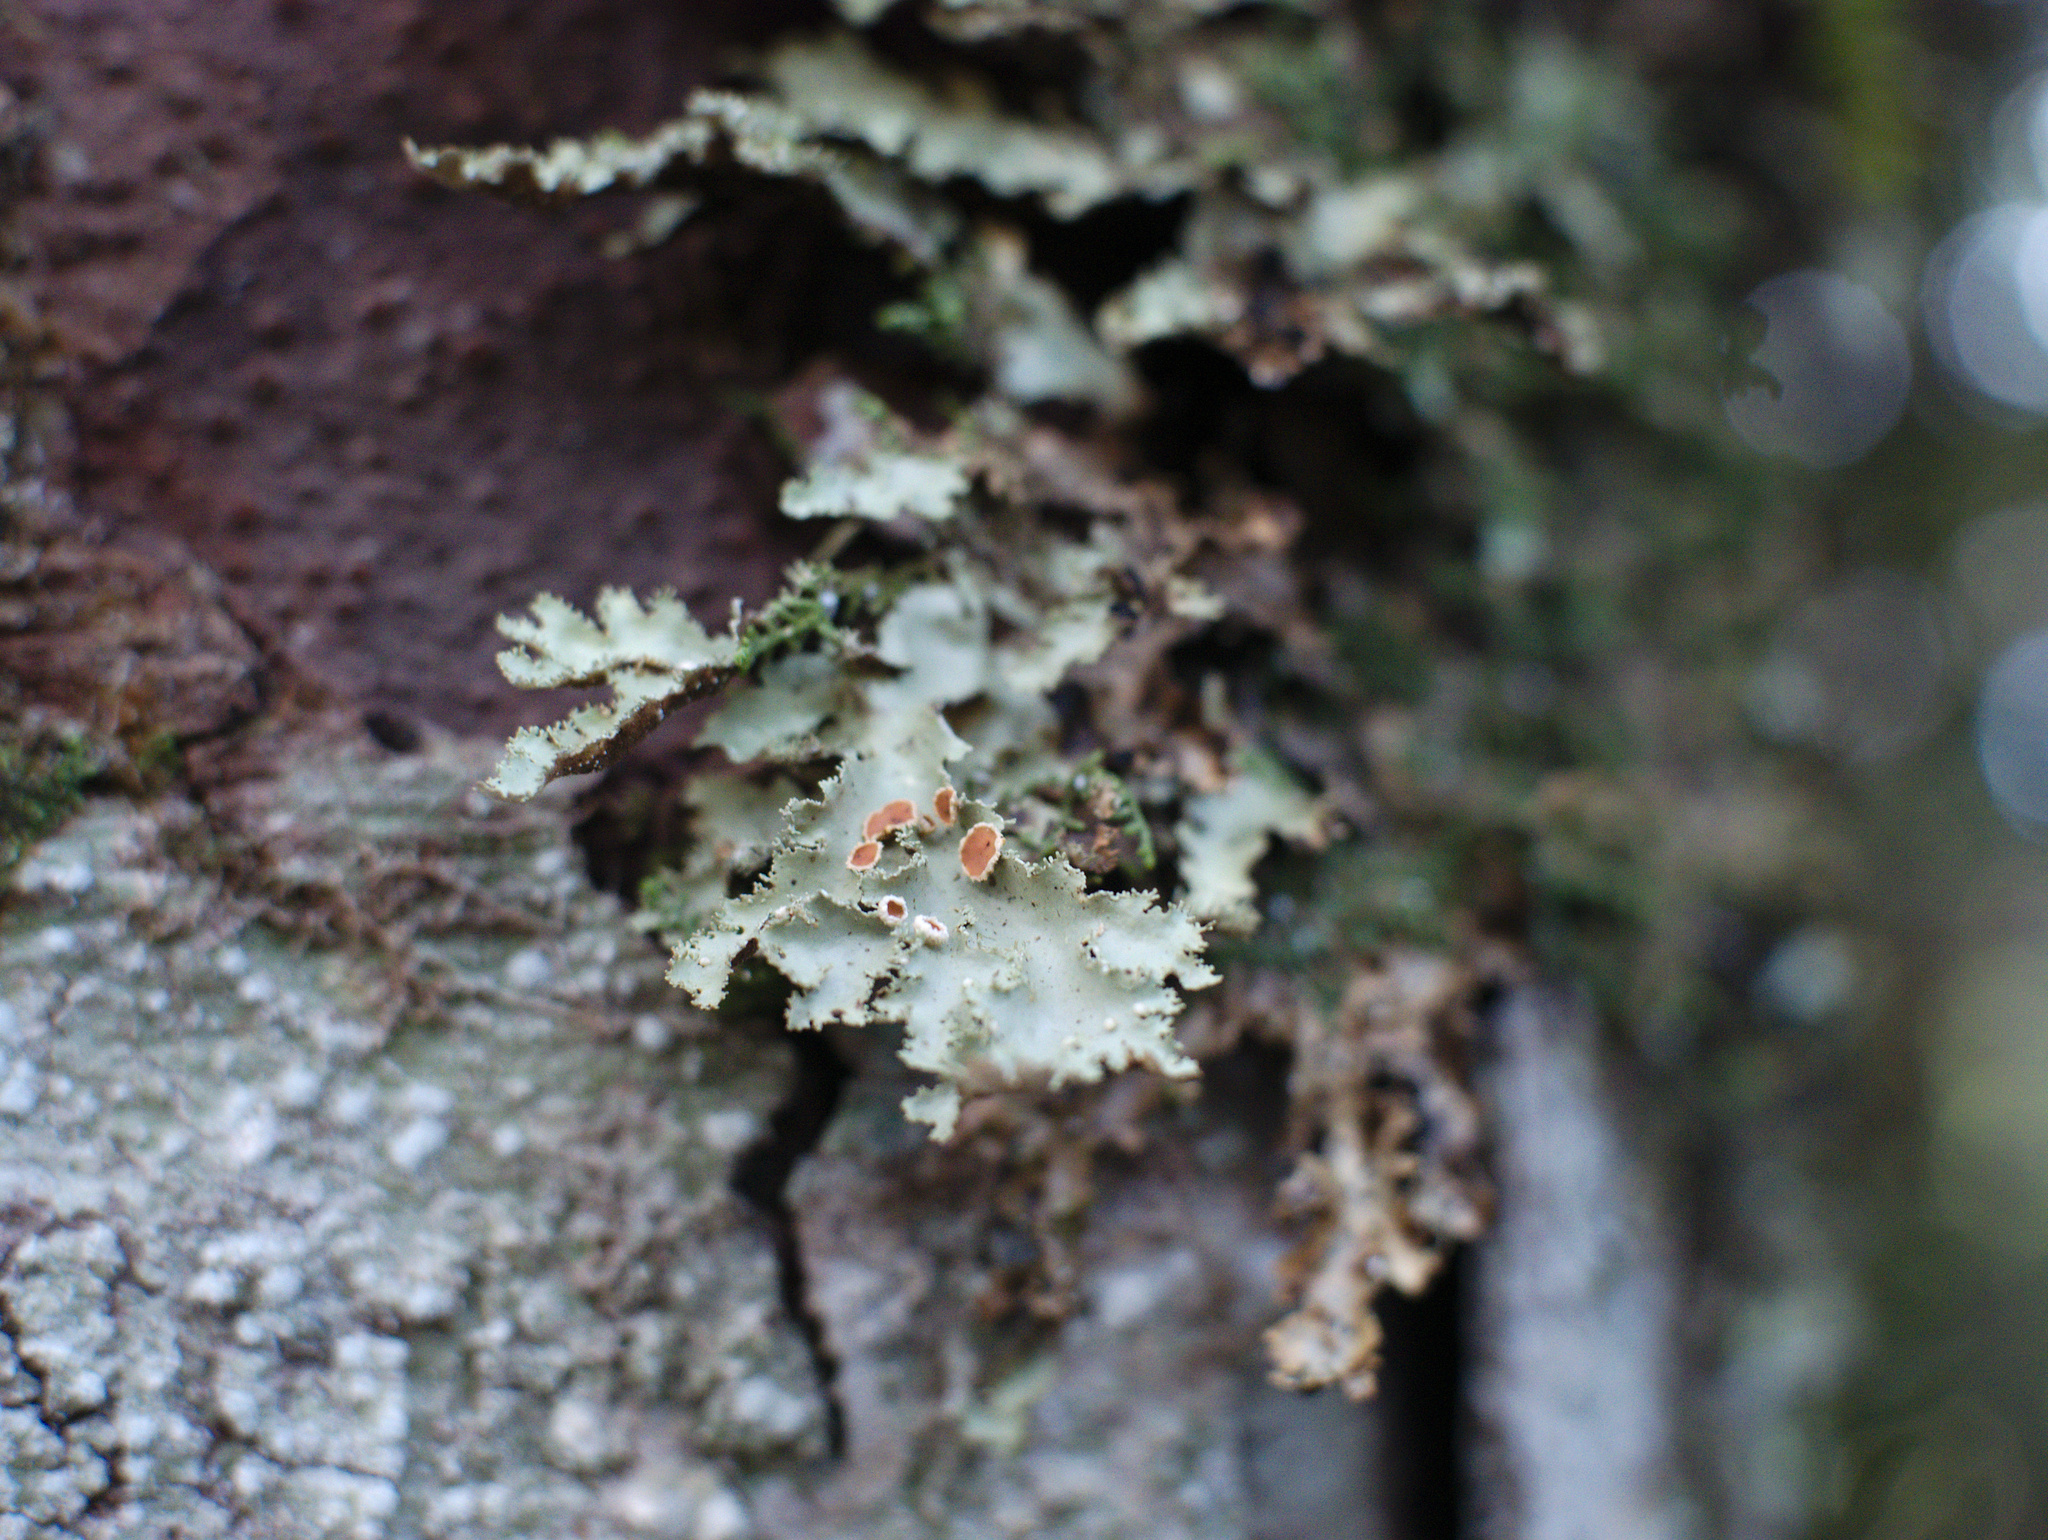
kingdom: Fungi
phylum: Ascomycota
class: Lecanoromycetes
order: Peltigerales
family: Lobariaceae
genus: Pseudocyphellaria
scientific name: Pseudocyphellaria glabra
